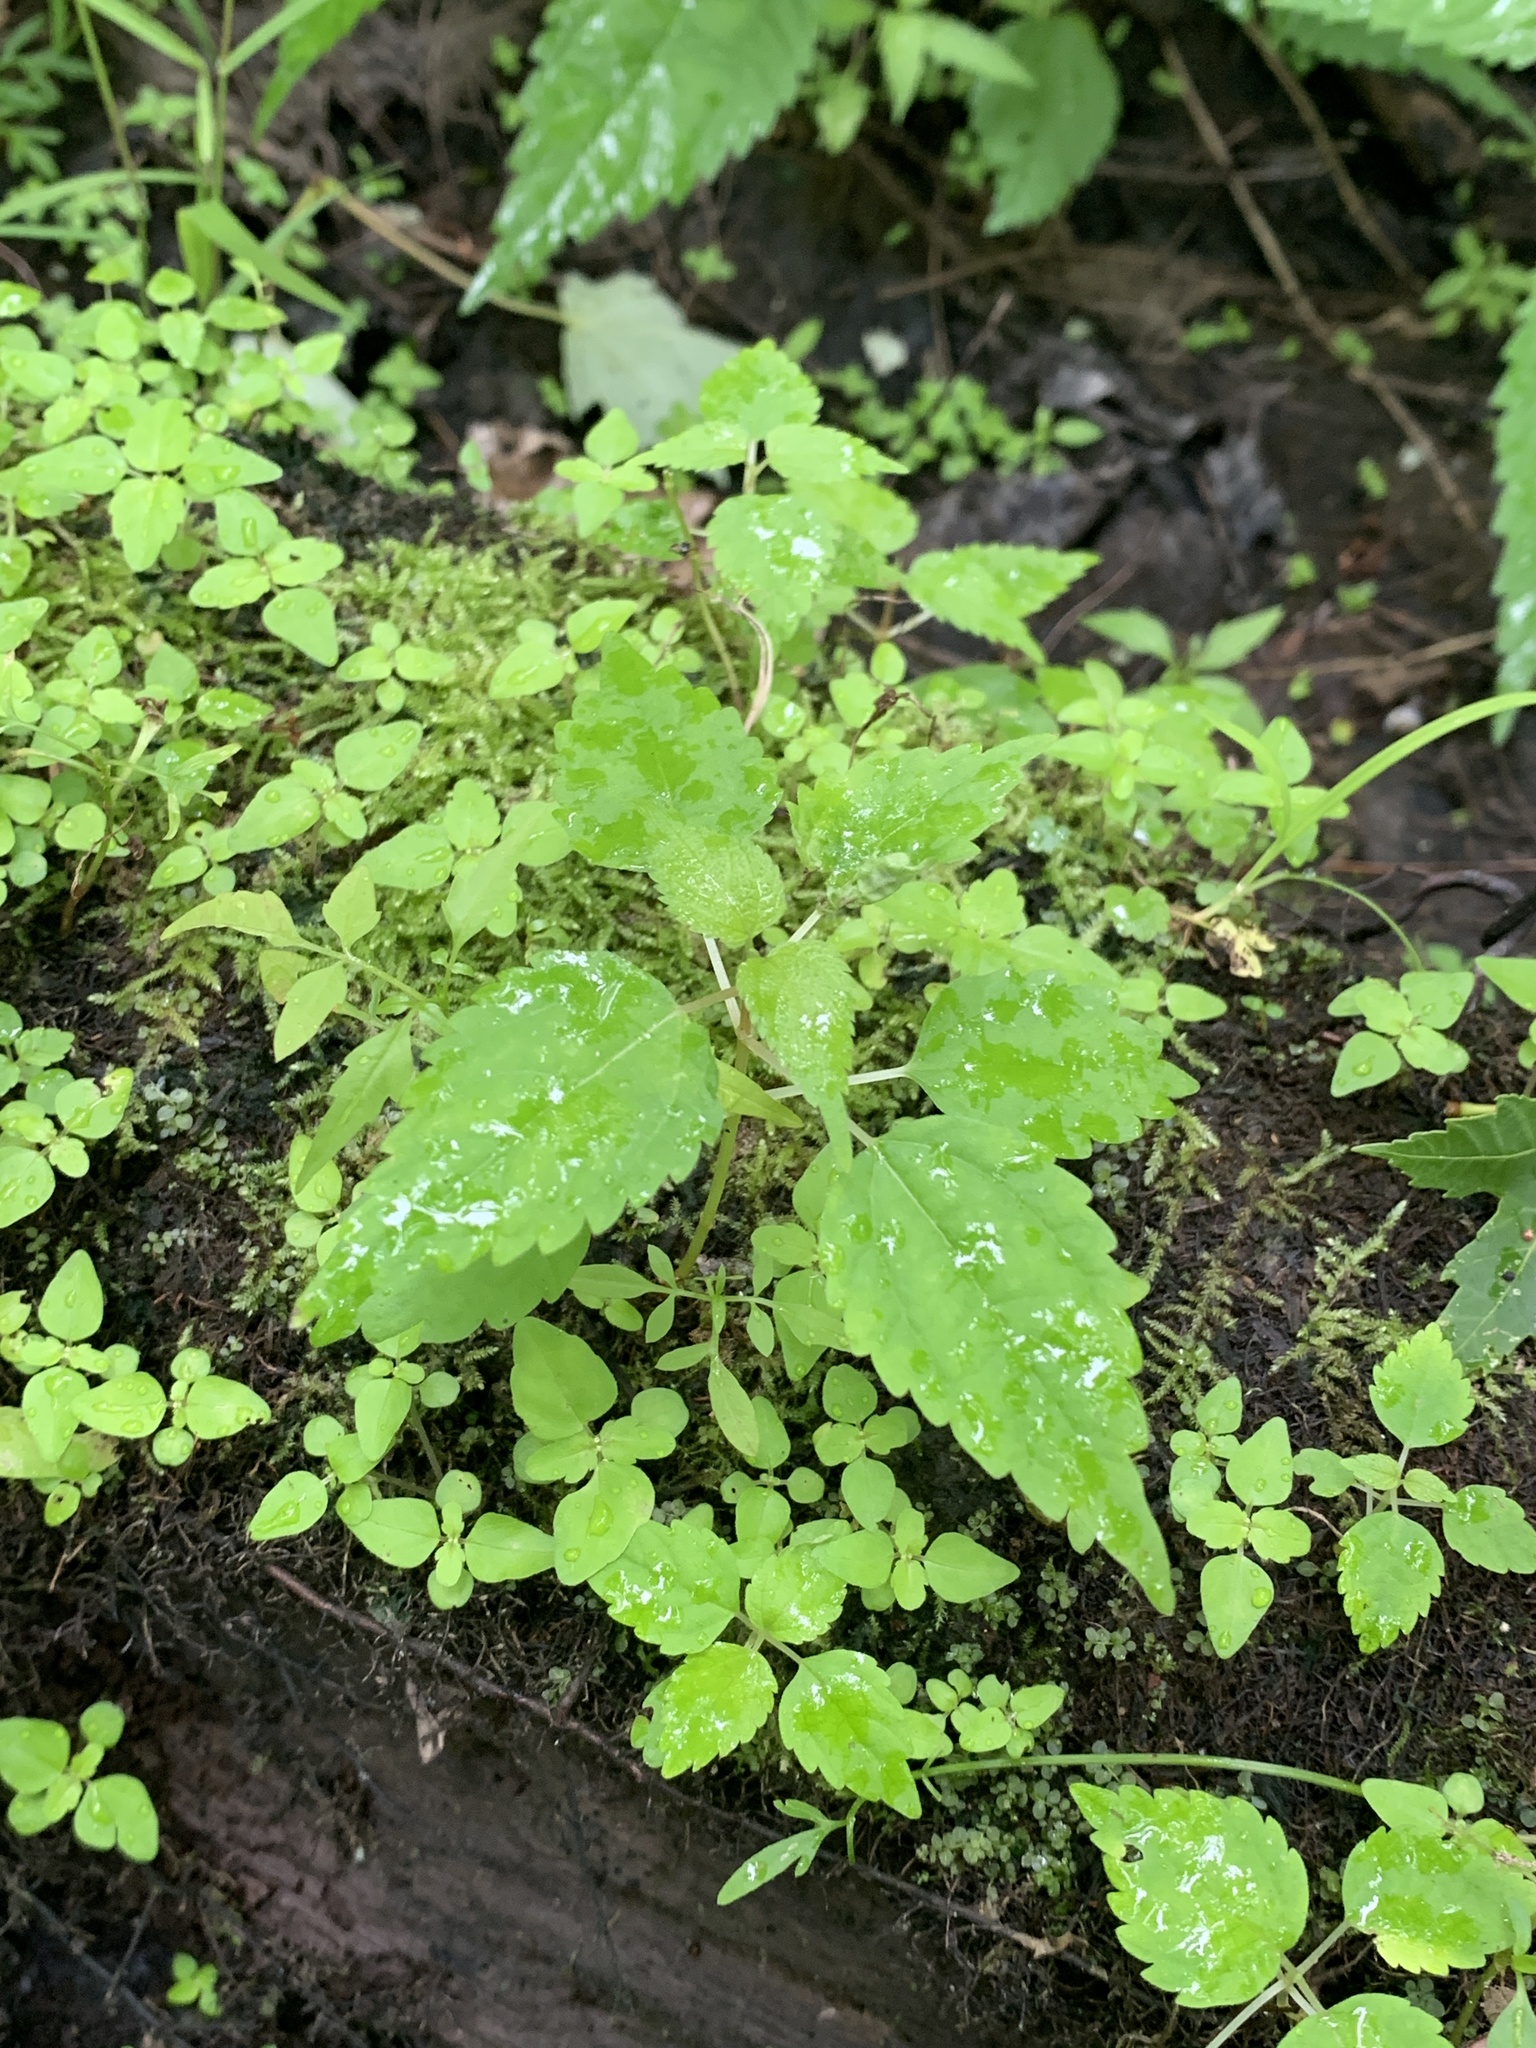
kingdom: Plantae
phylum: Tracheophyta
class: Magnoliopsida
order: Rosales
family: Urticaceae
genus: Pilea
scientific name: Pilea pumila
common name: Clearweed
